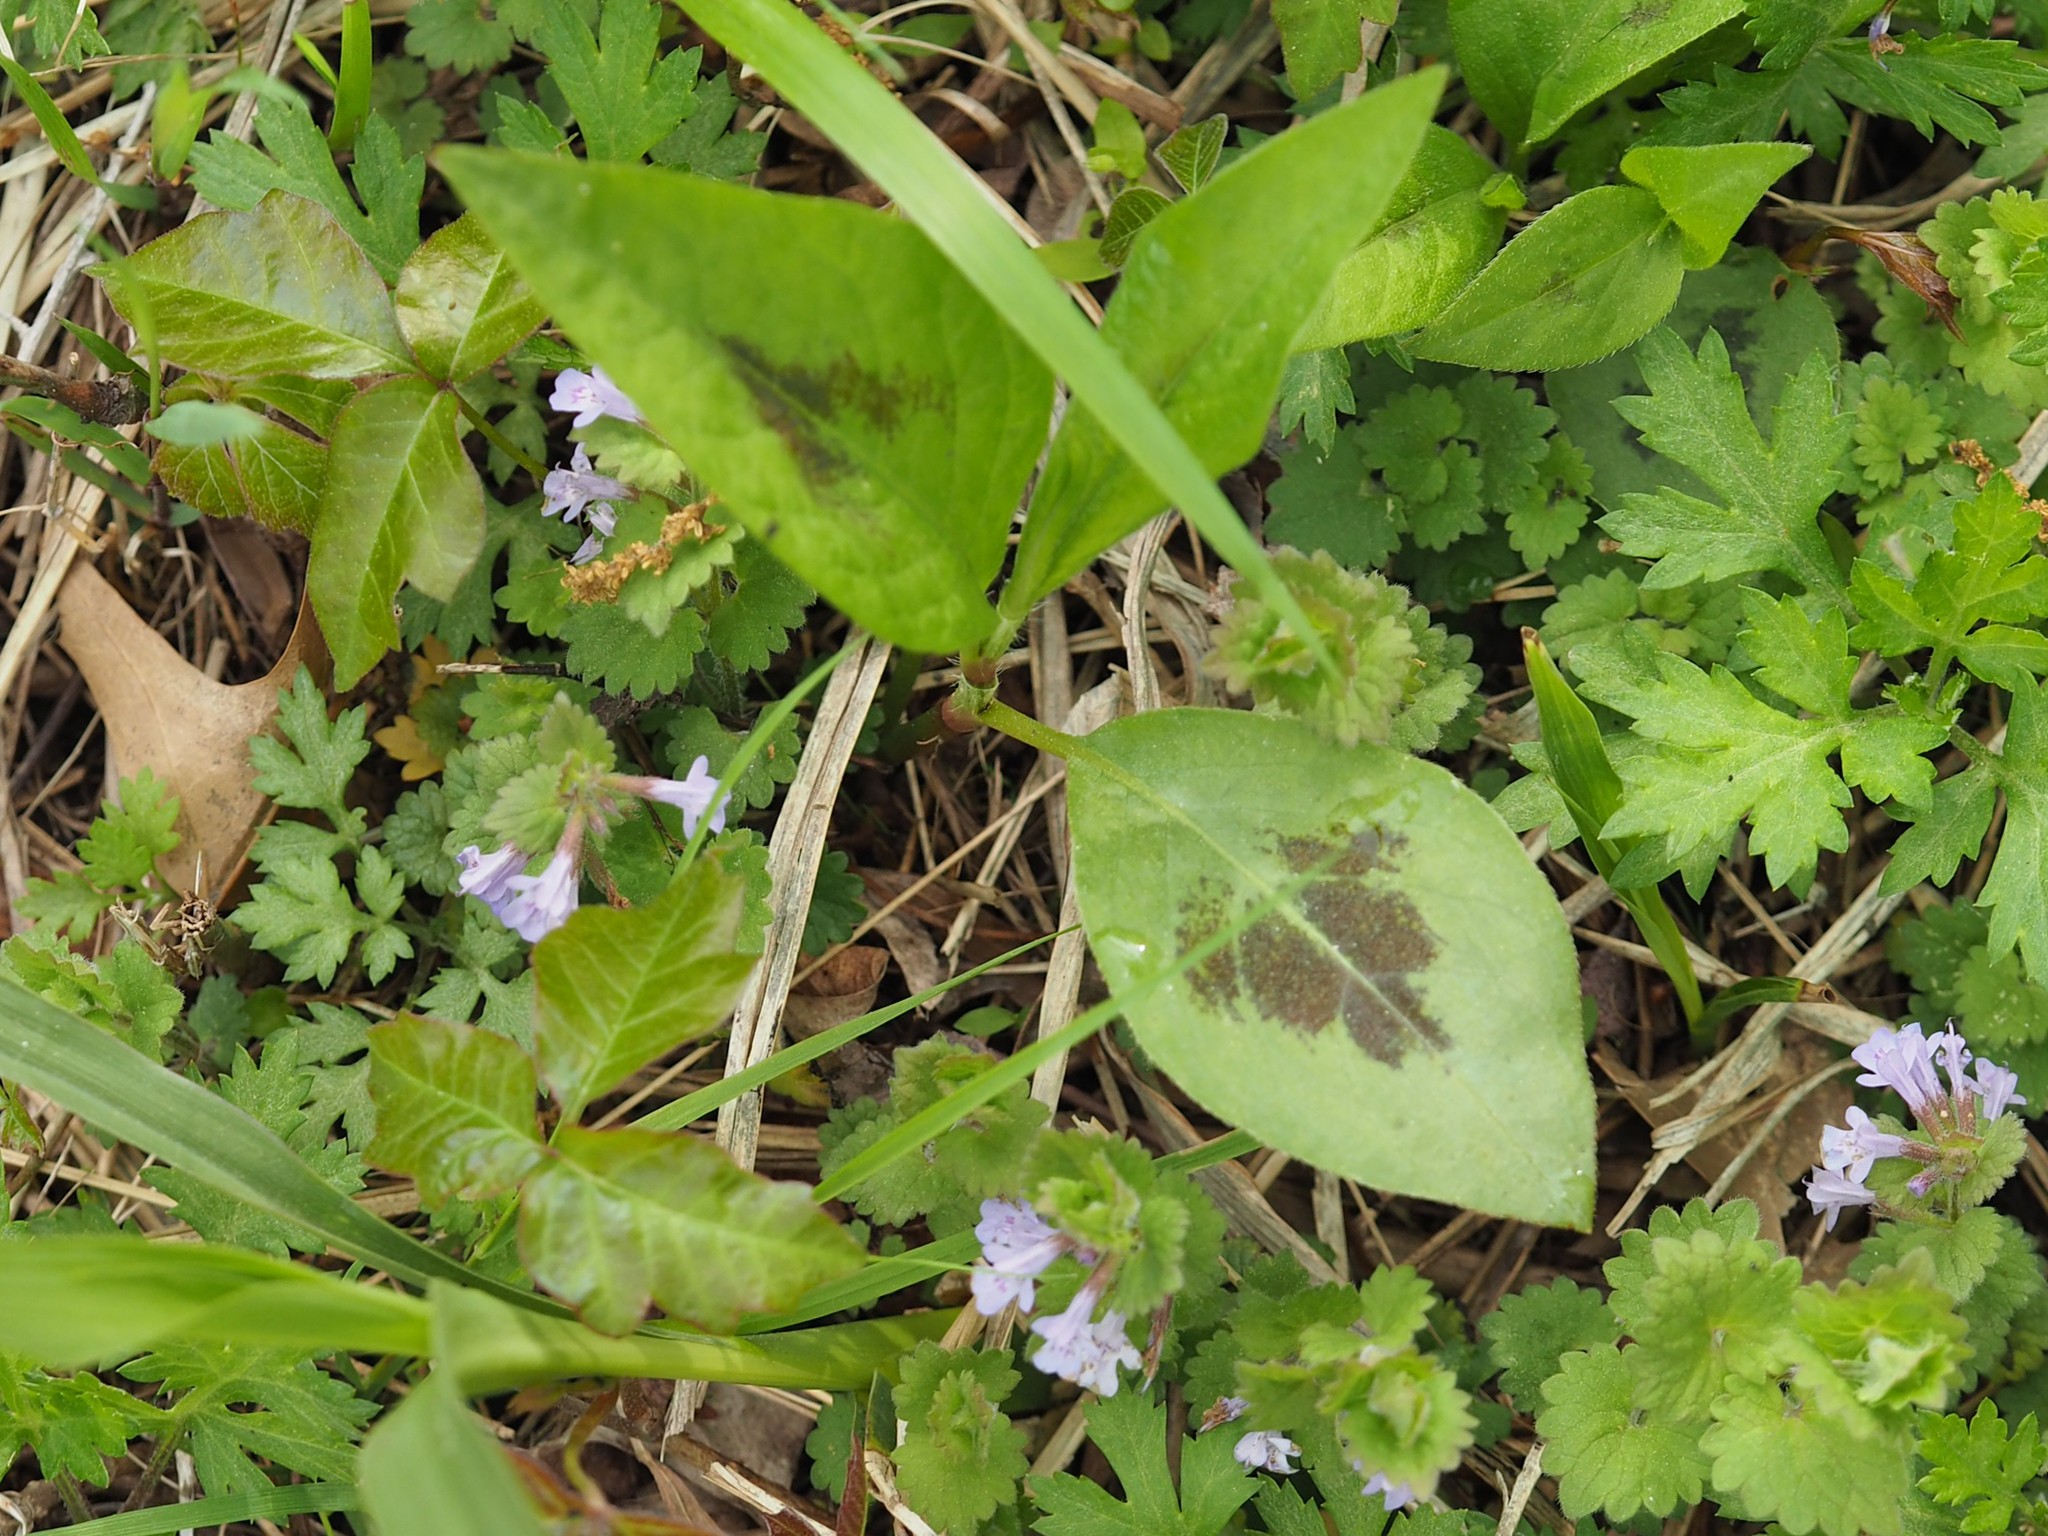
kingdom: Plantae
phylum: Tracheophyta
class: Magnoliopsida
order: Caryophyllales
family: Polygonaceae
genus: Persicaria
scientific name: Persicaria virginiana
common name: Jumpseed
